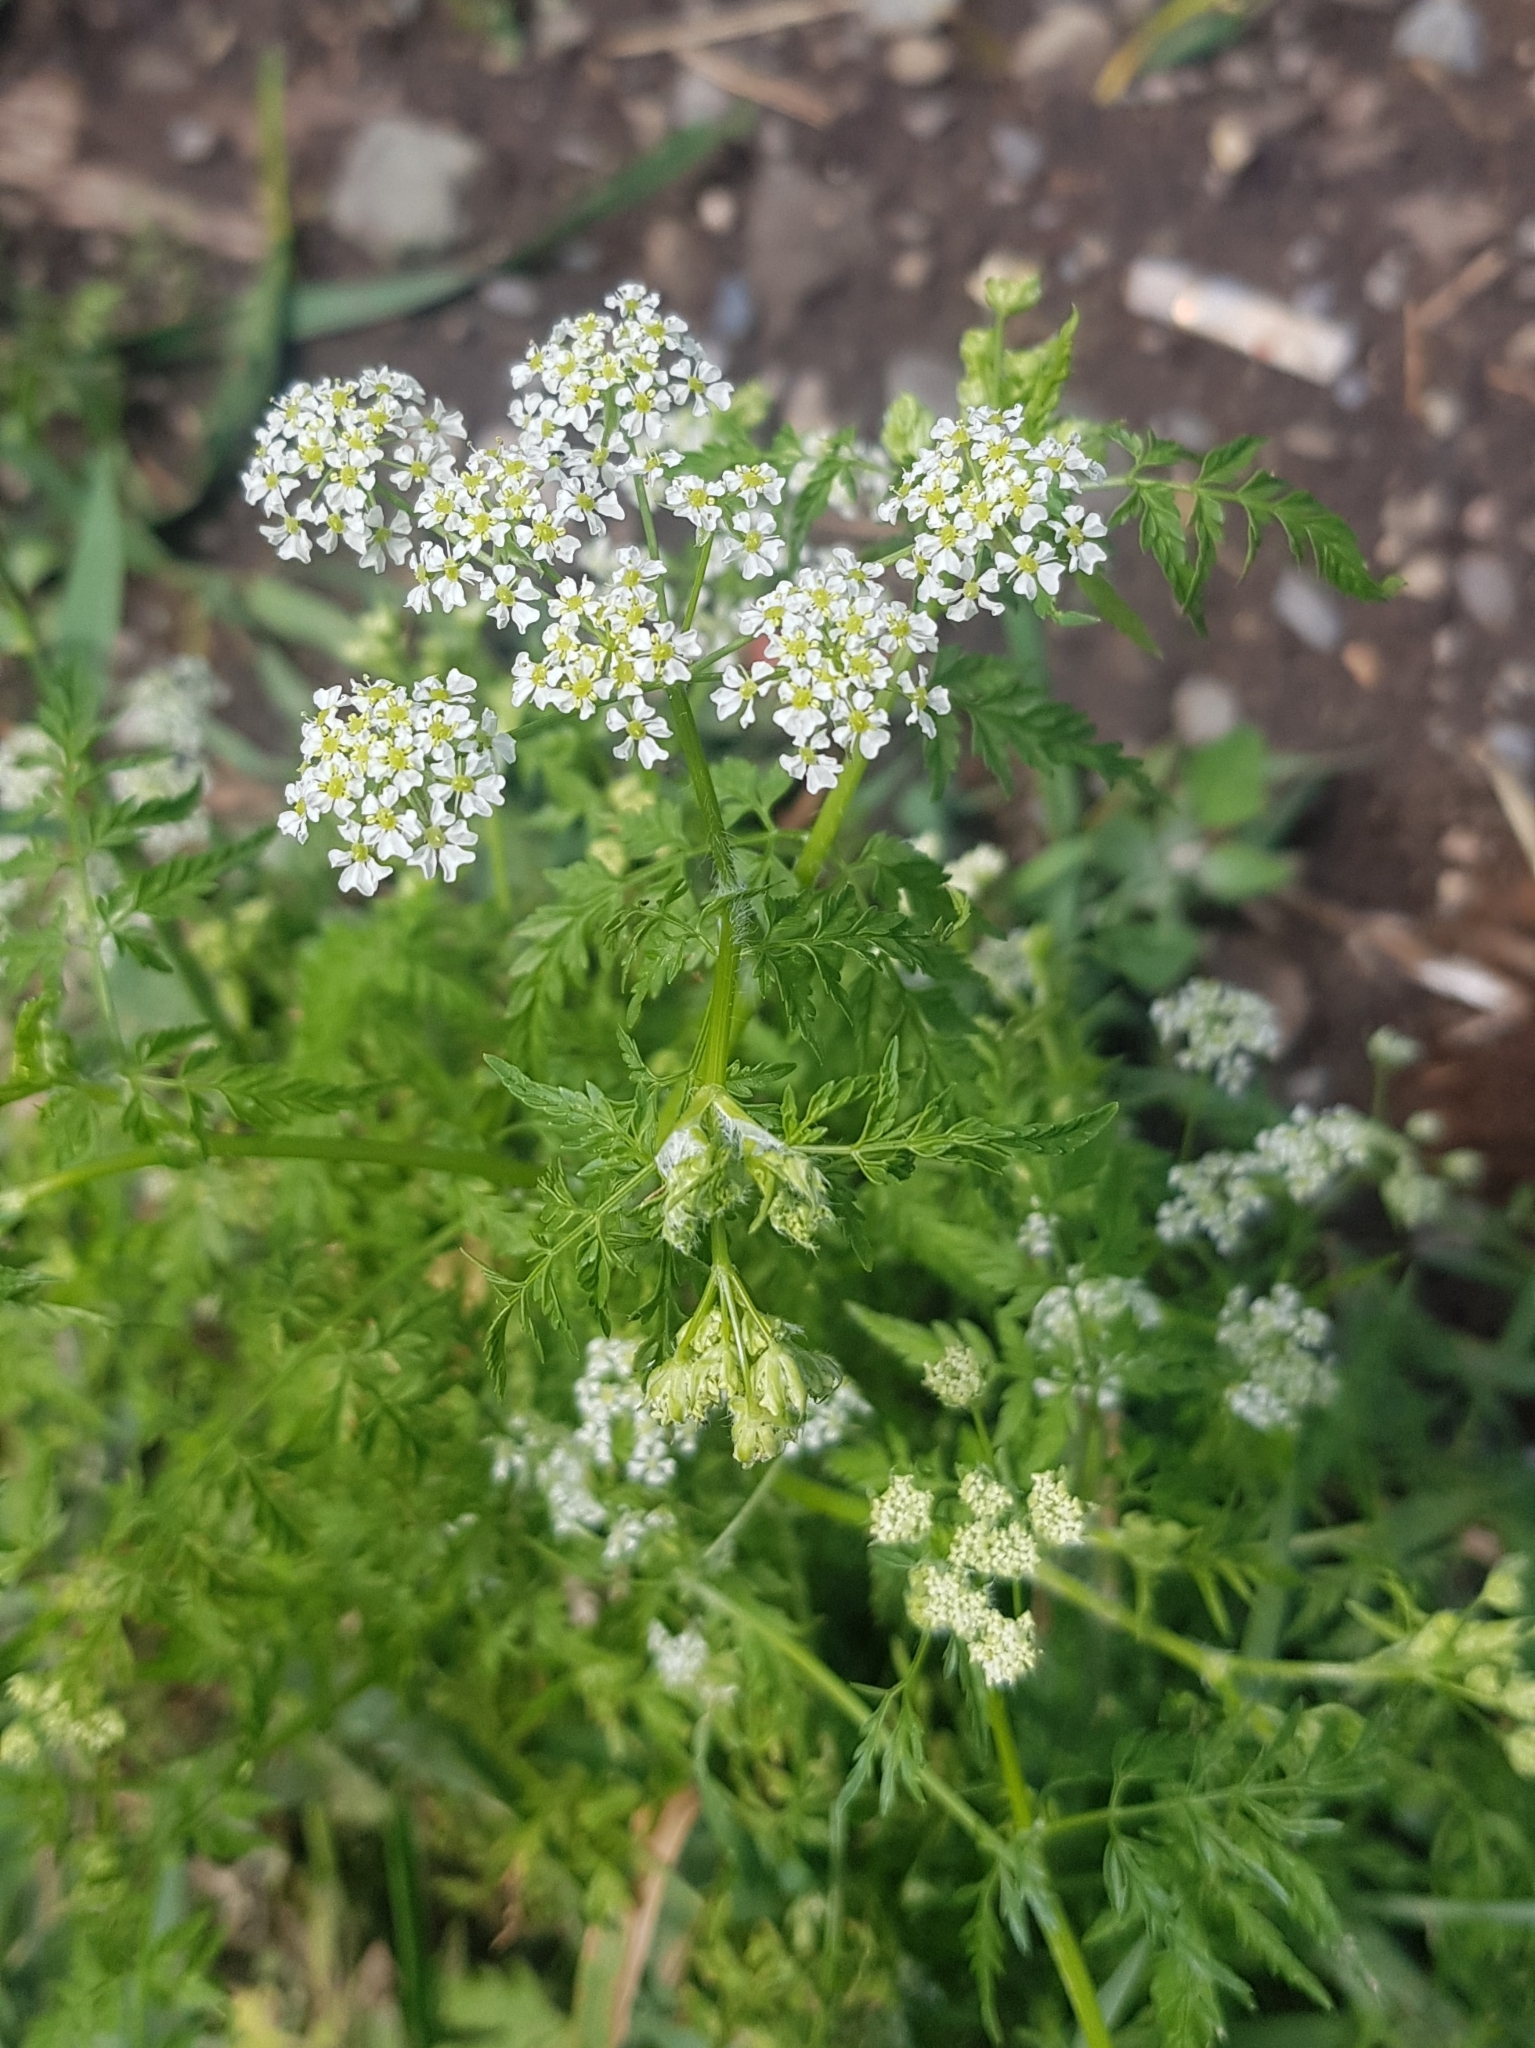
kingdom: Plantae
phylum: Tracheophyta
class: Magnoliopsida
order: Apiales
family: Apiaceae
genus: Sphallerocarpus
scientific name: Sphallerocarpus gracilis
